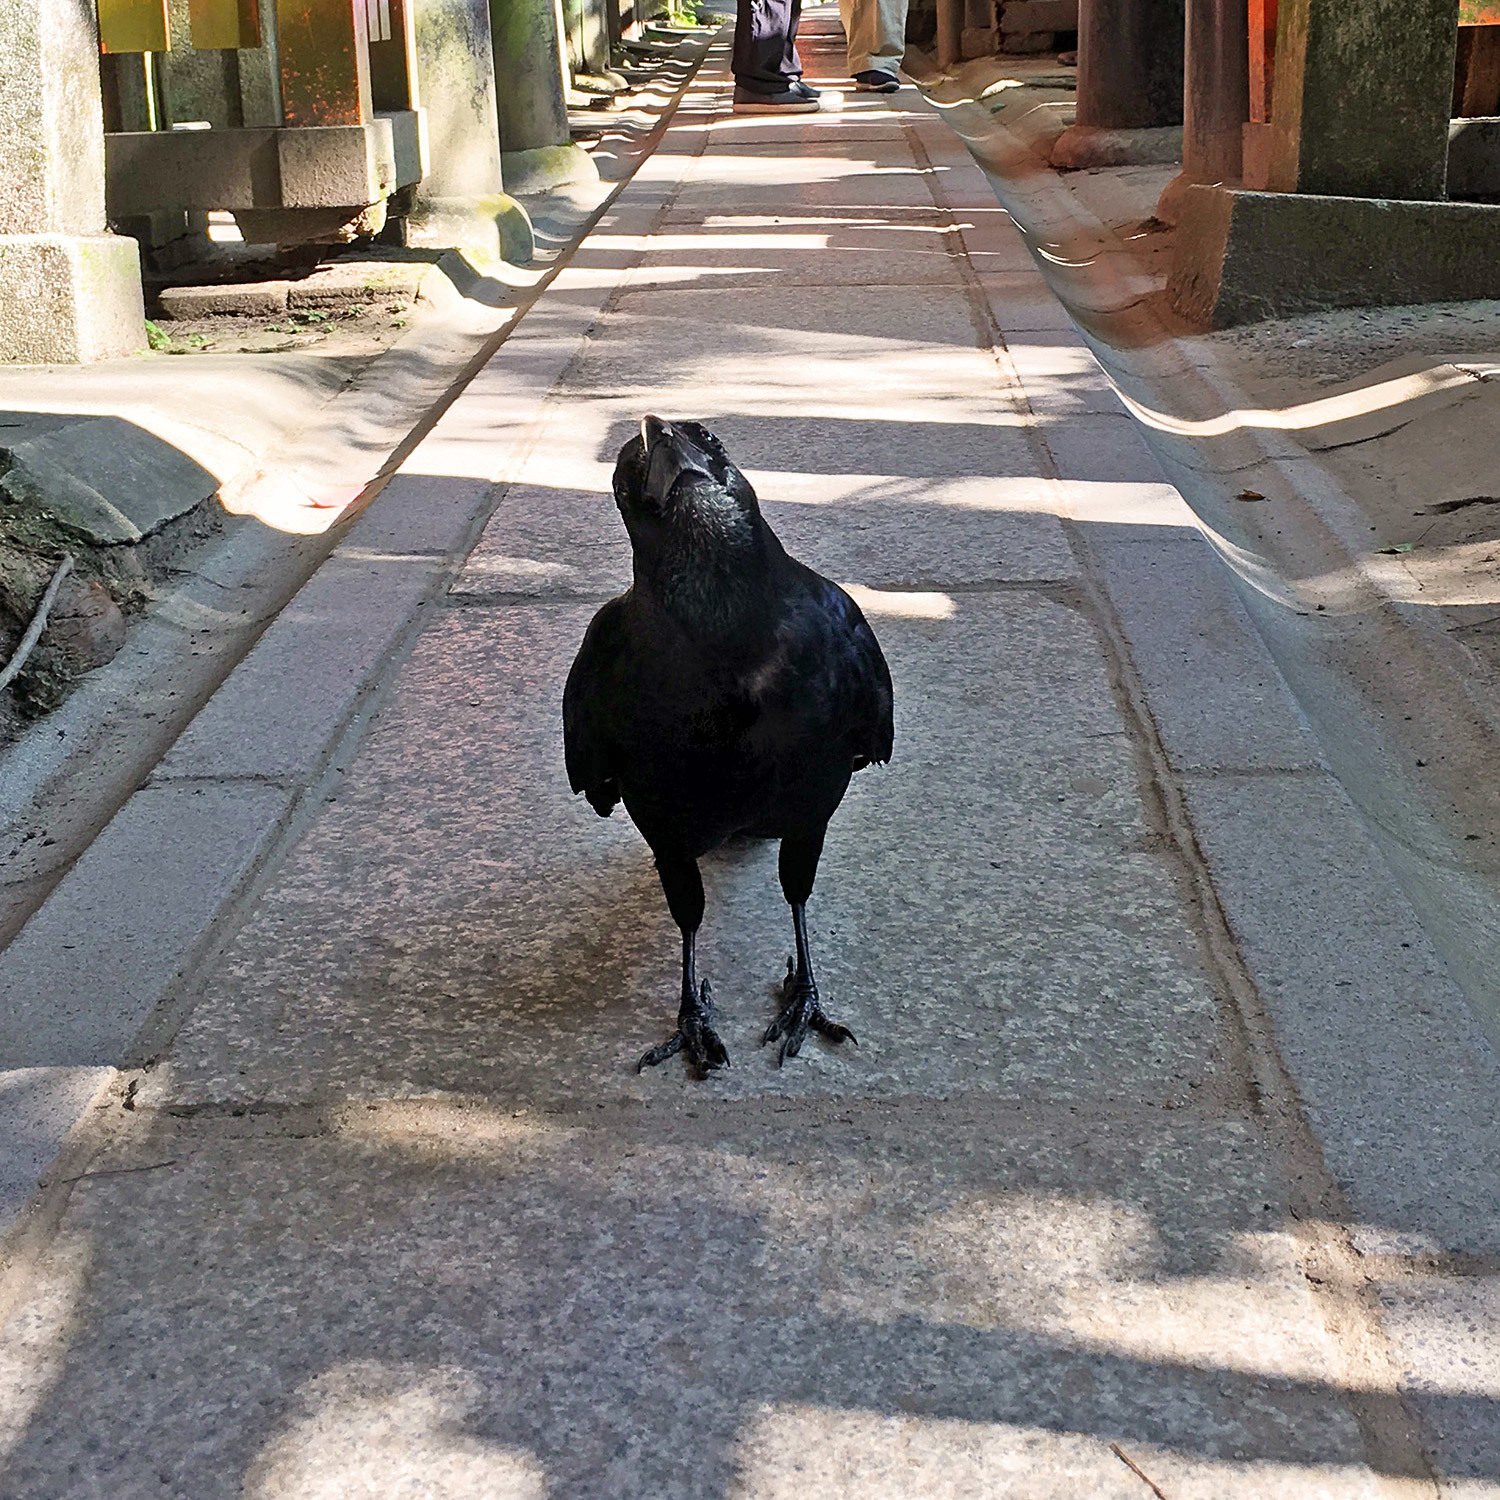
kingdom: Animalia
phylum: Chordata
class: Aves
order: Passeriformes
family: Corvidae
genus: Corvus
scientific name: Corvus macrorhynchos
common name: Large-billed crow
